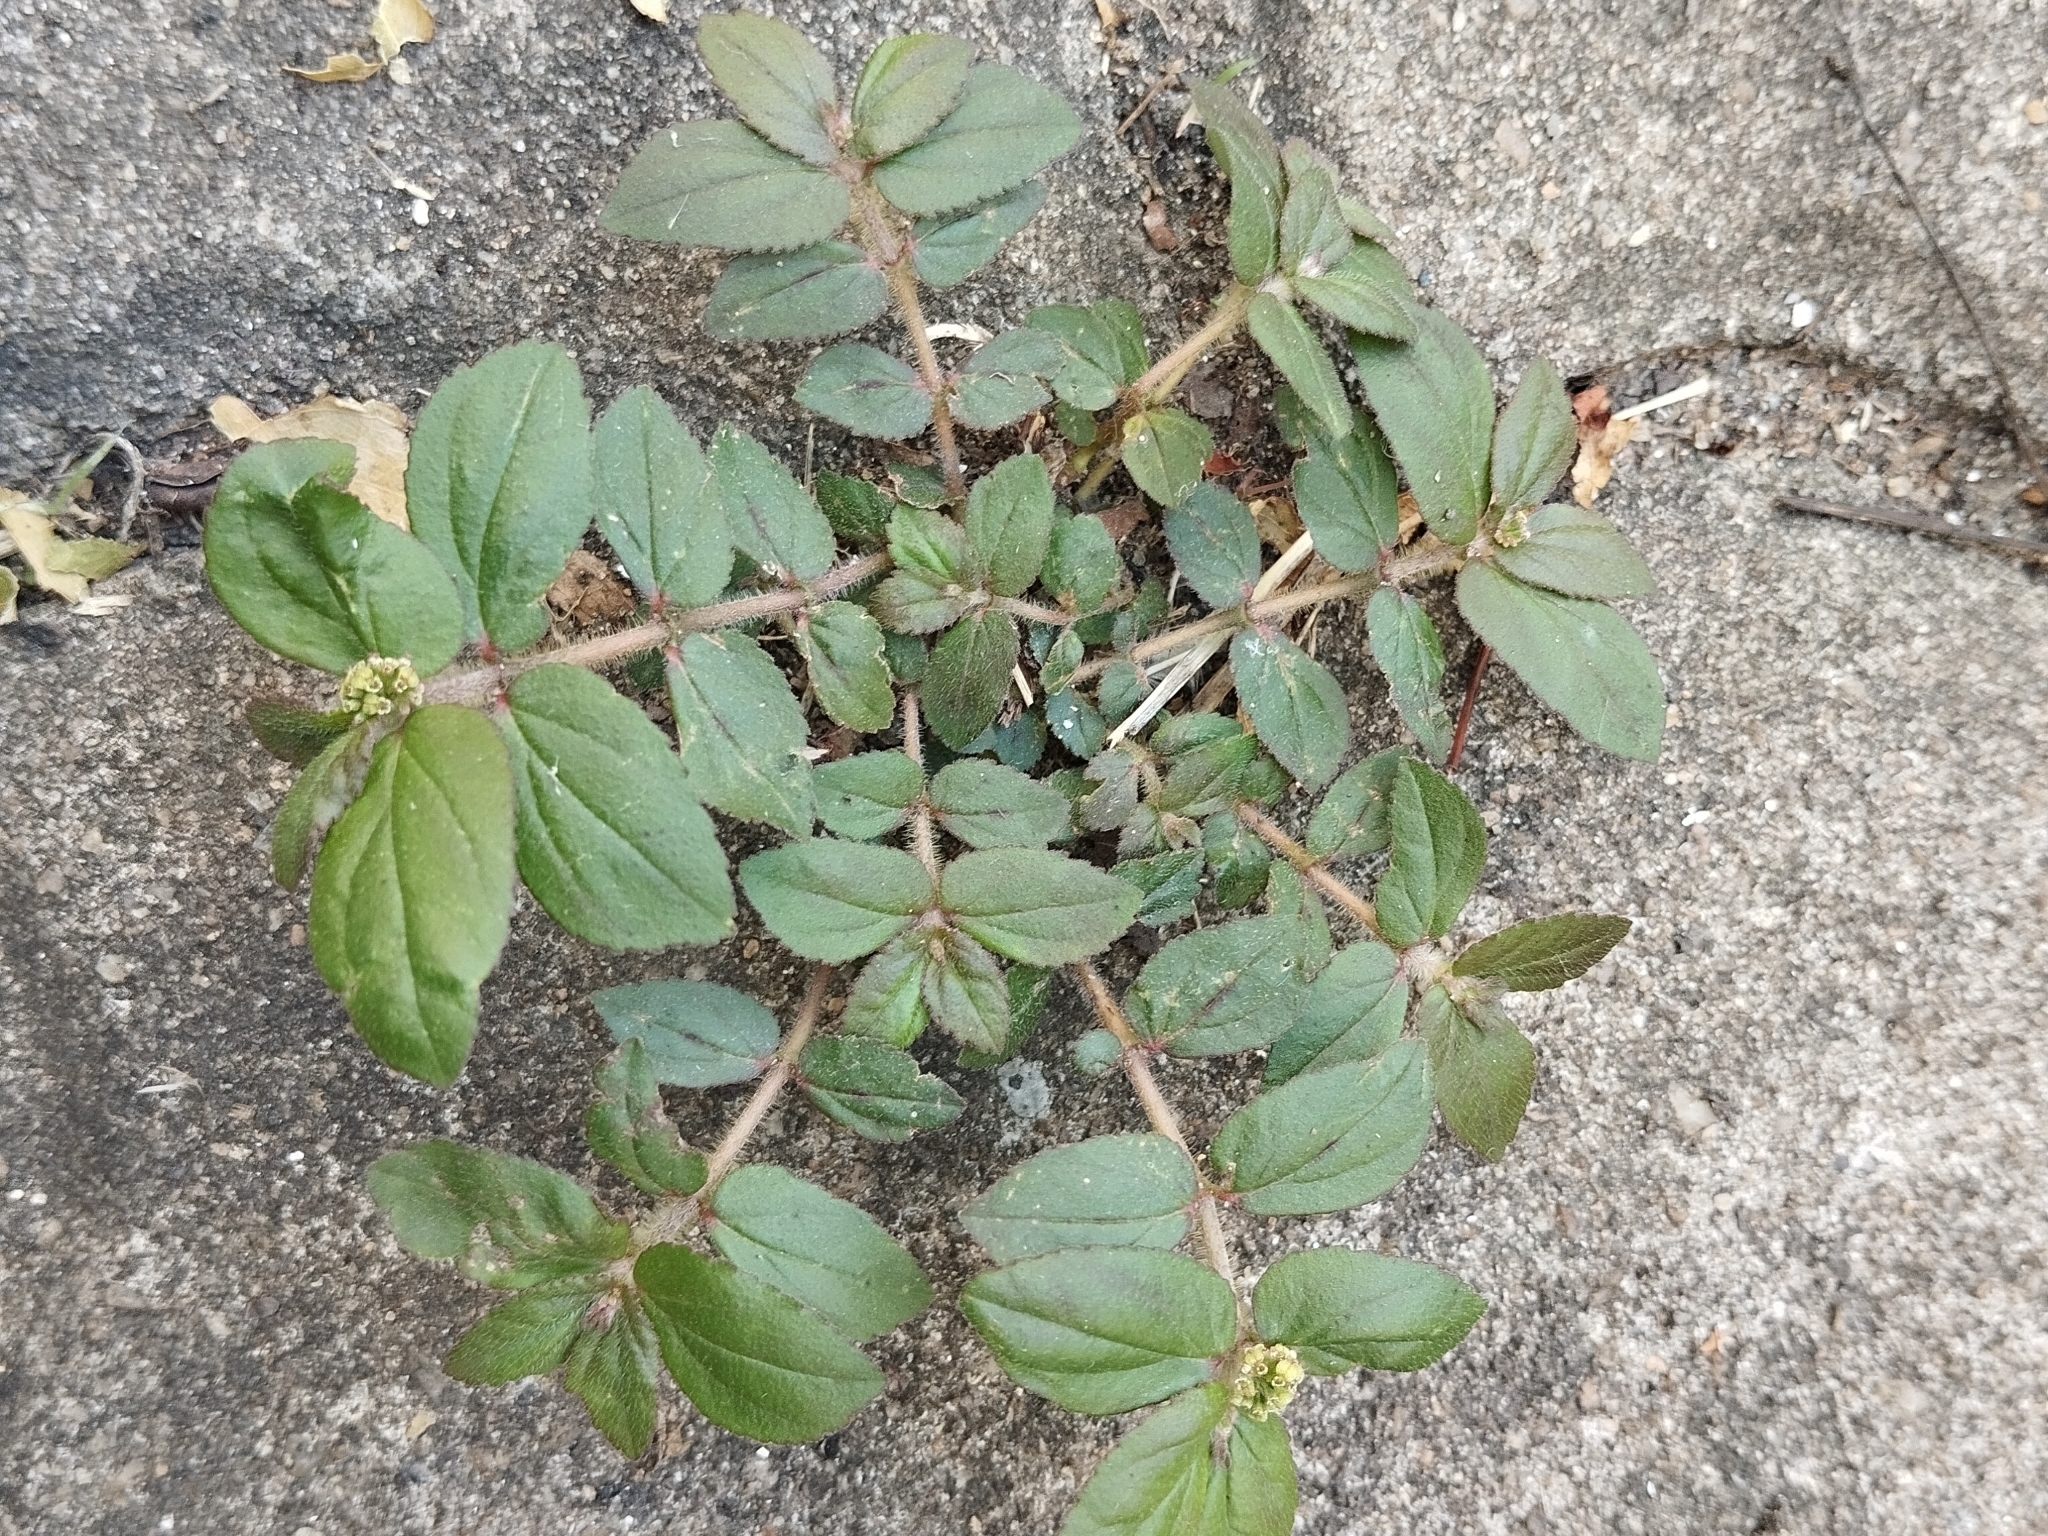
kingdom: Plantae
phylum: Tracheophyta
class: Magnoliopsida
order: Malpighiales
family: Euphorbiaceae
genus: Euphorbia
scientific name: Euphorbia hirta
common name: Pillpod sandmat
